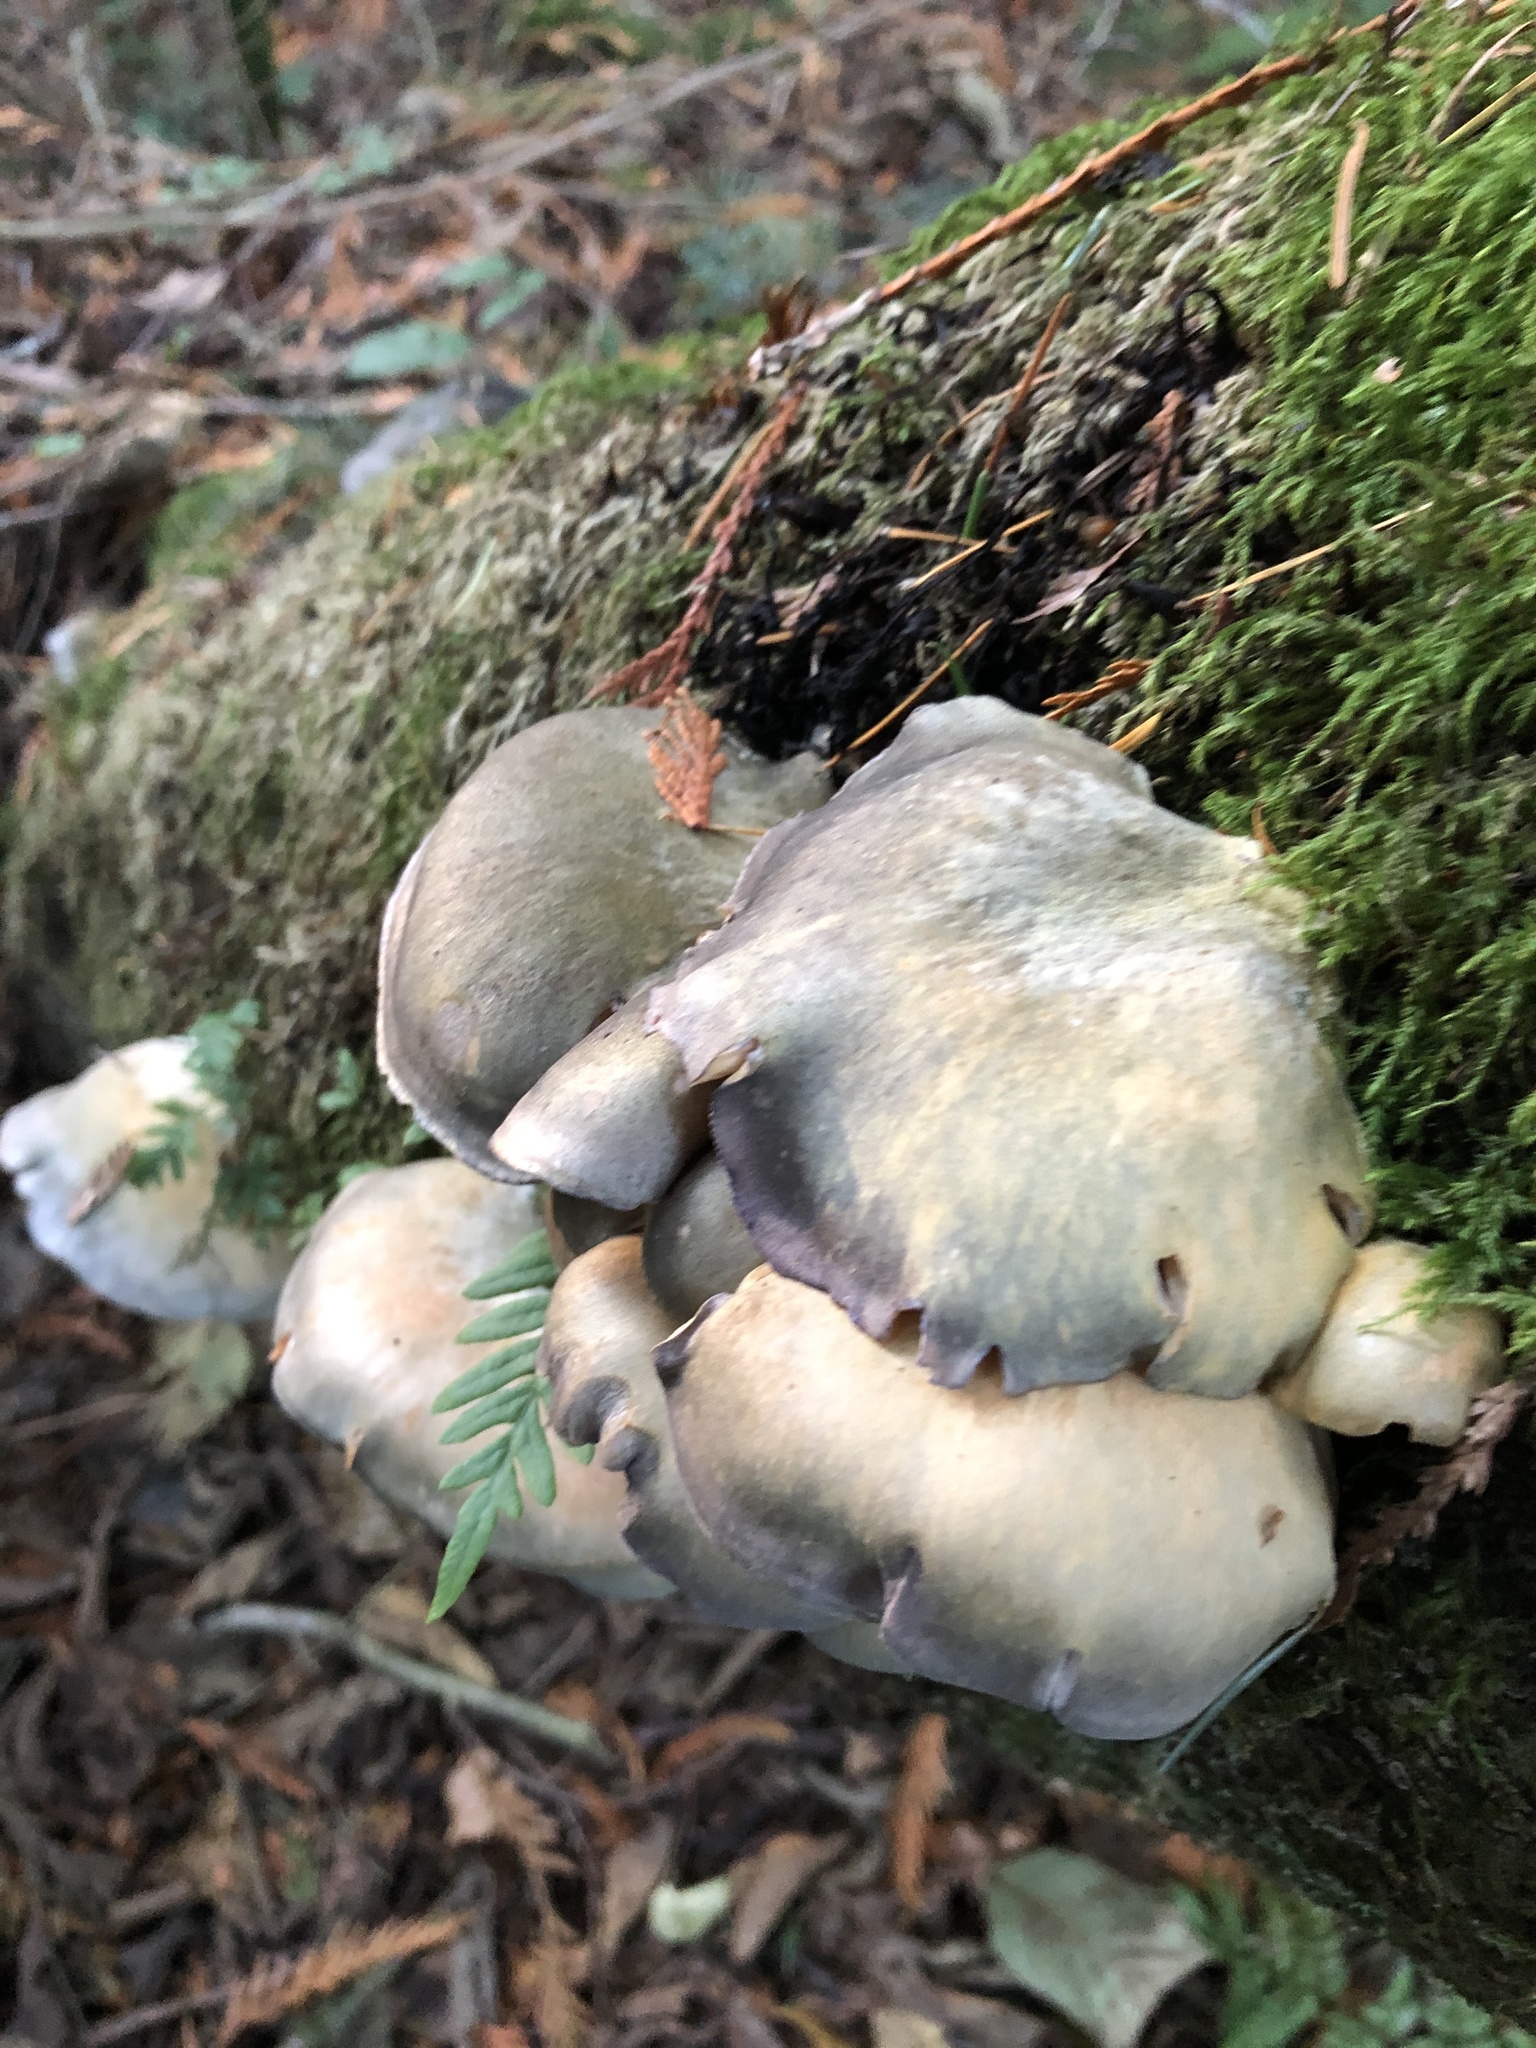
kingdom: Fungi
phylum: Basidiomycota
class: Agaricomycetes
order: Agaricales
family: Sarcomyxaceae
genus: Sarcomyxa
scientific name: Sarcomyxa serotina
